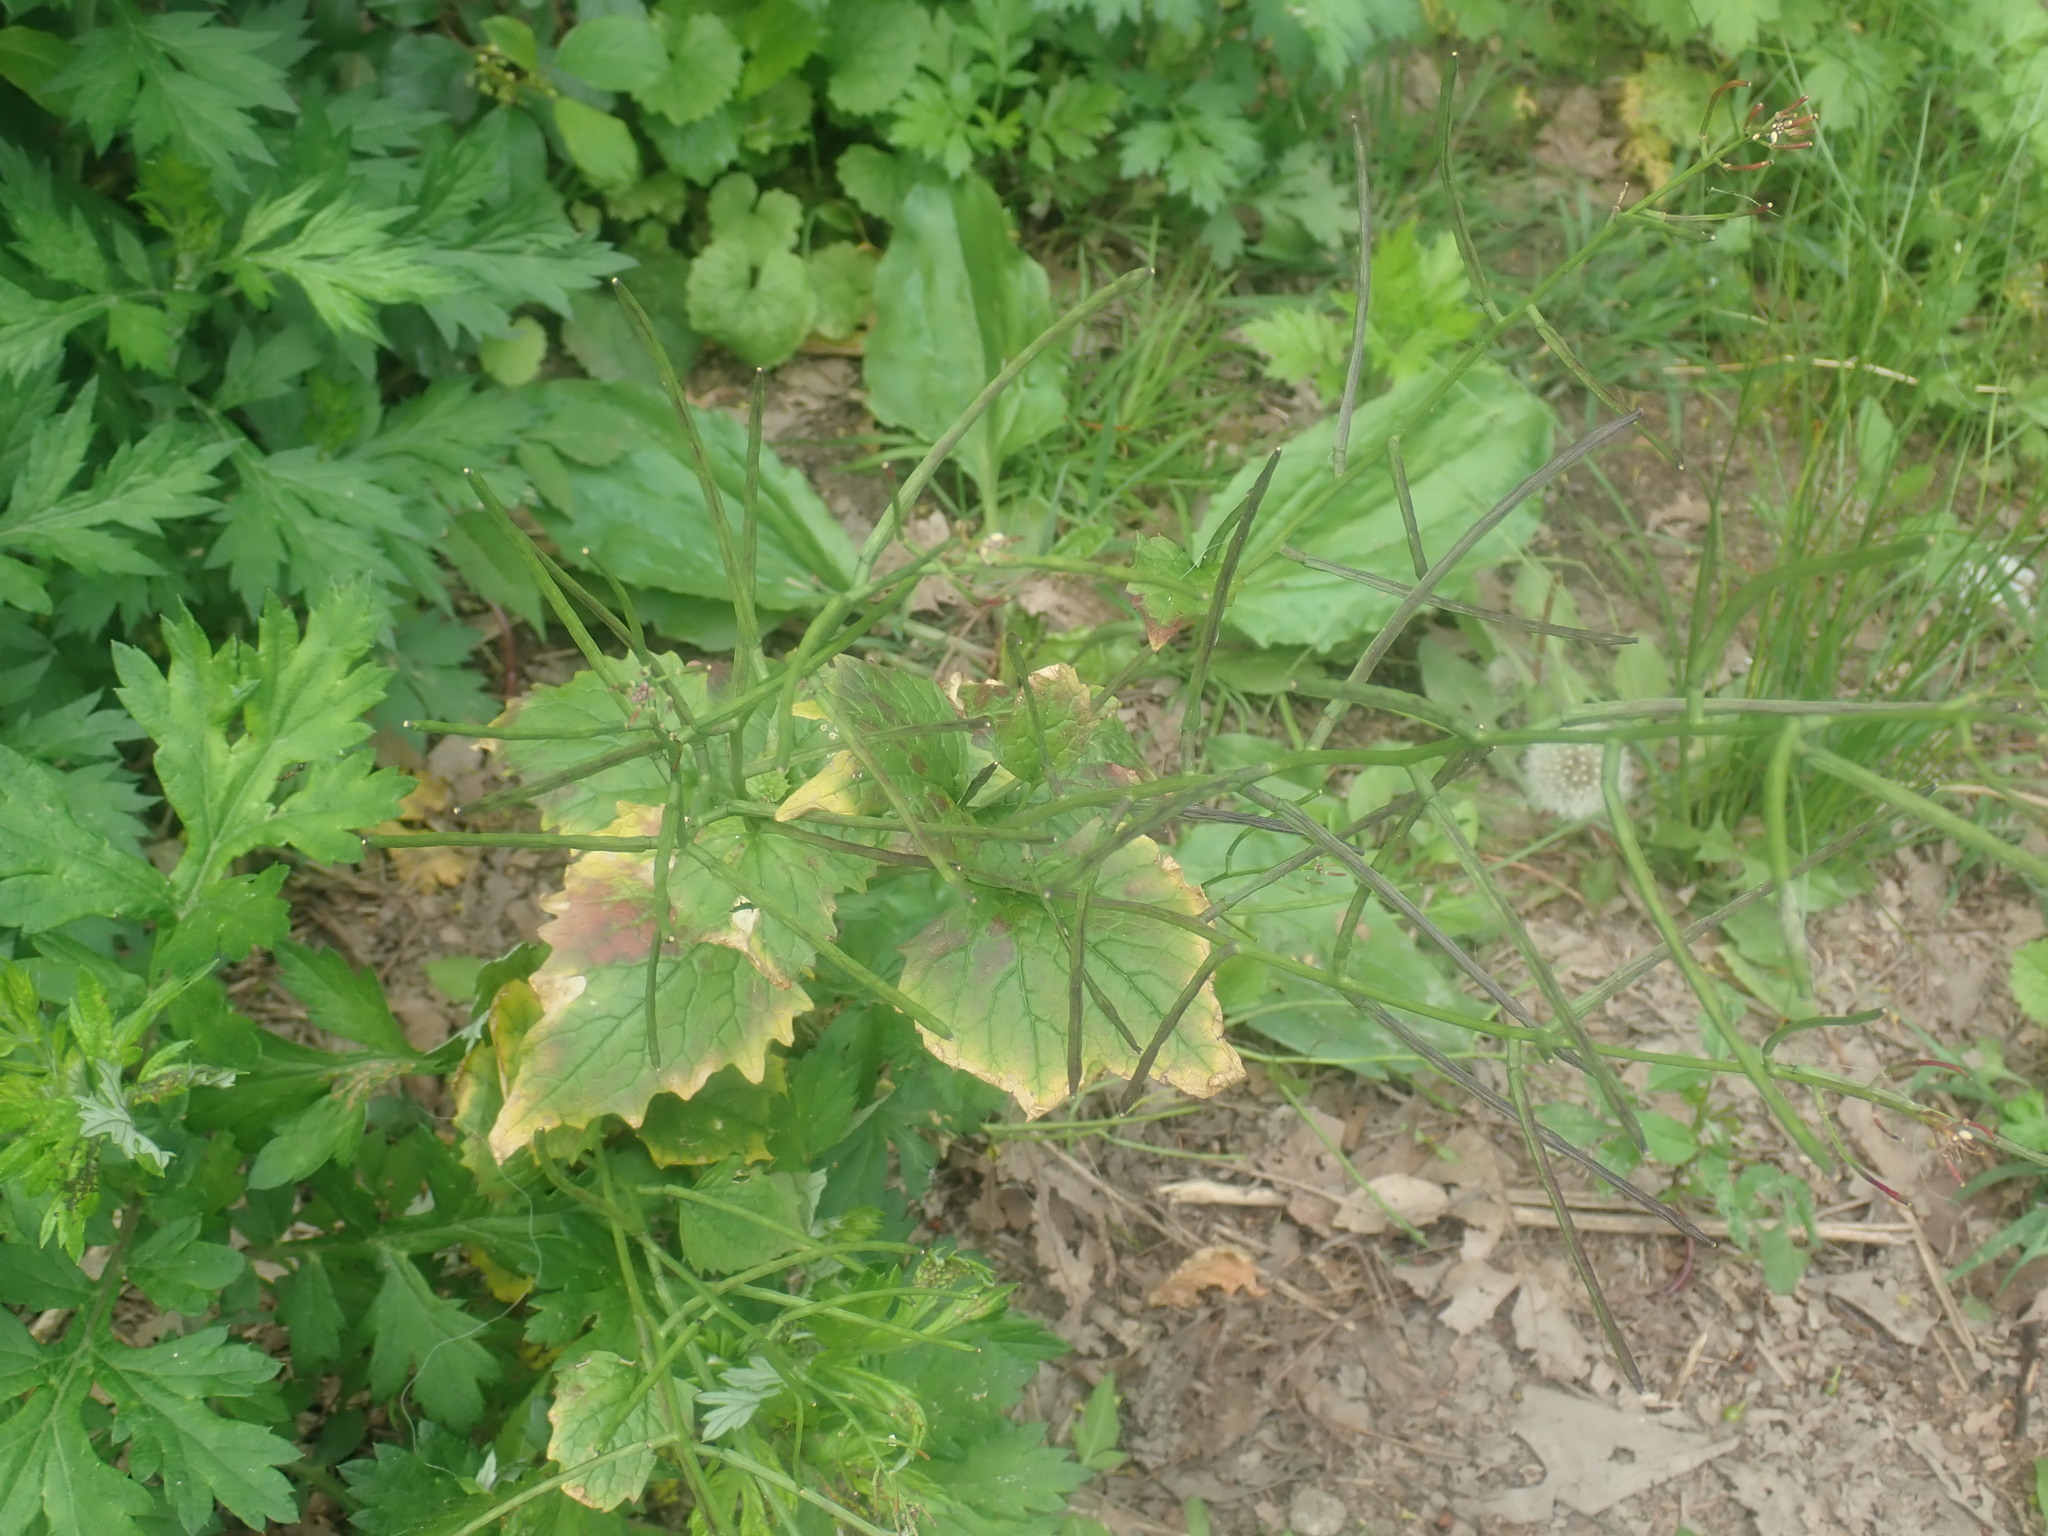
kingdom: Plantae
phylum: Tracheophyta
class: Magnoliopsida
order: Brassicales
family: Brassicaceae
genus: Alliaria
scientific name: Alliaria petiolata
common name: Garlic mustard
